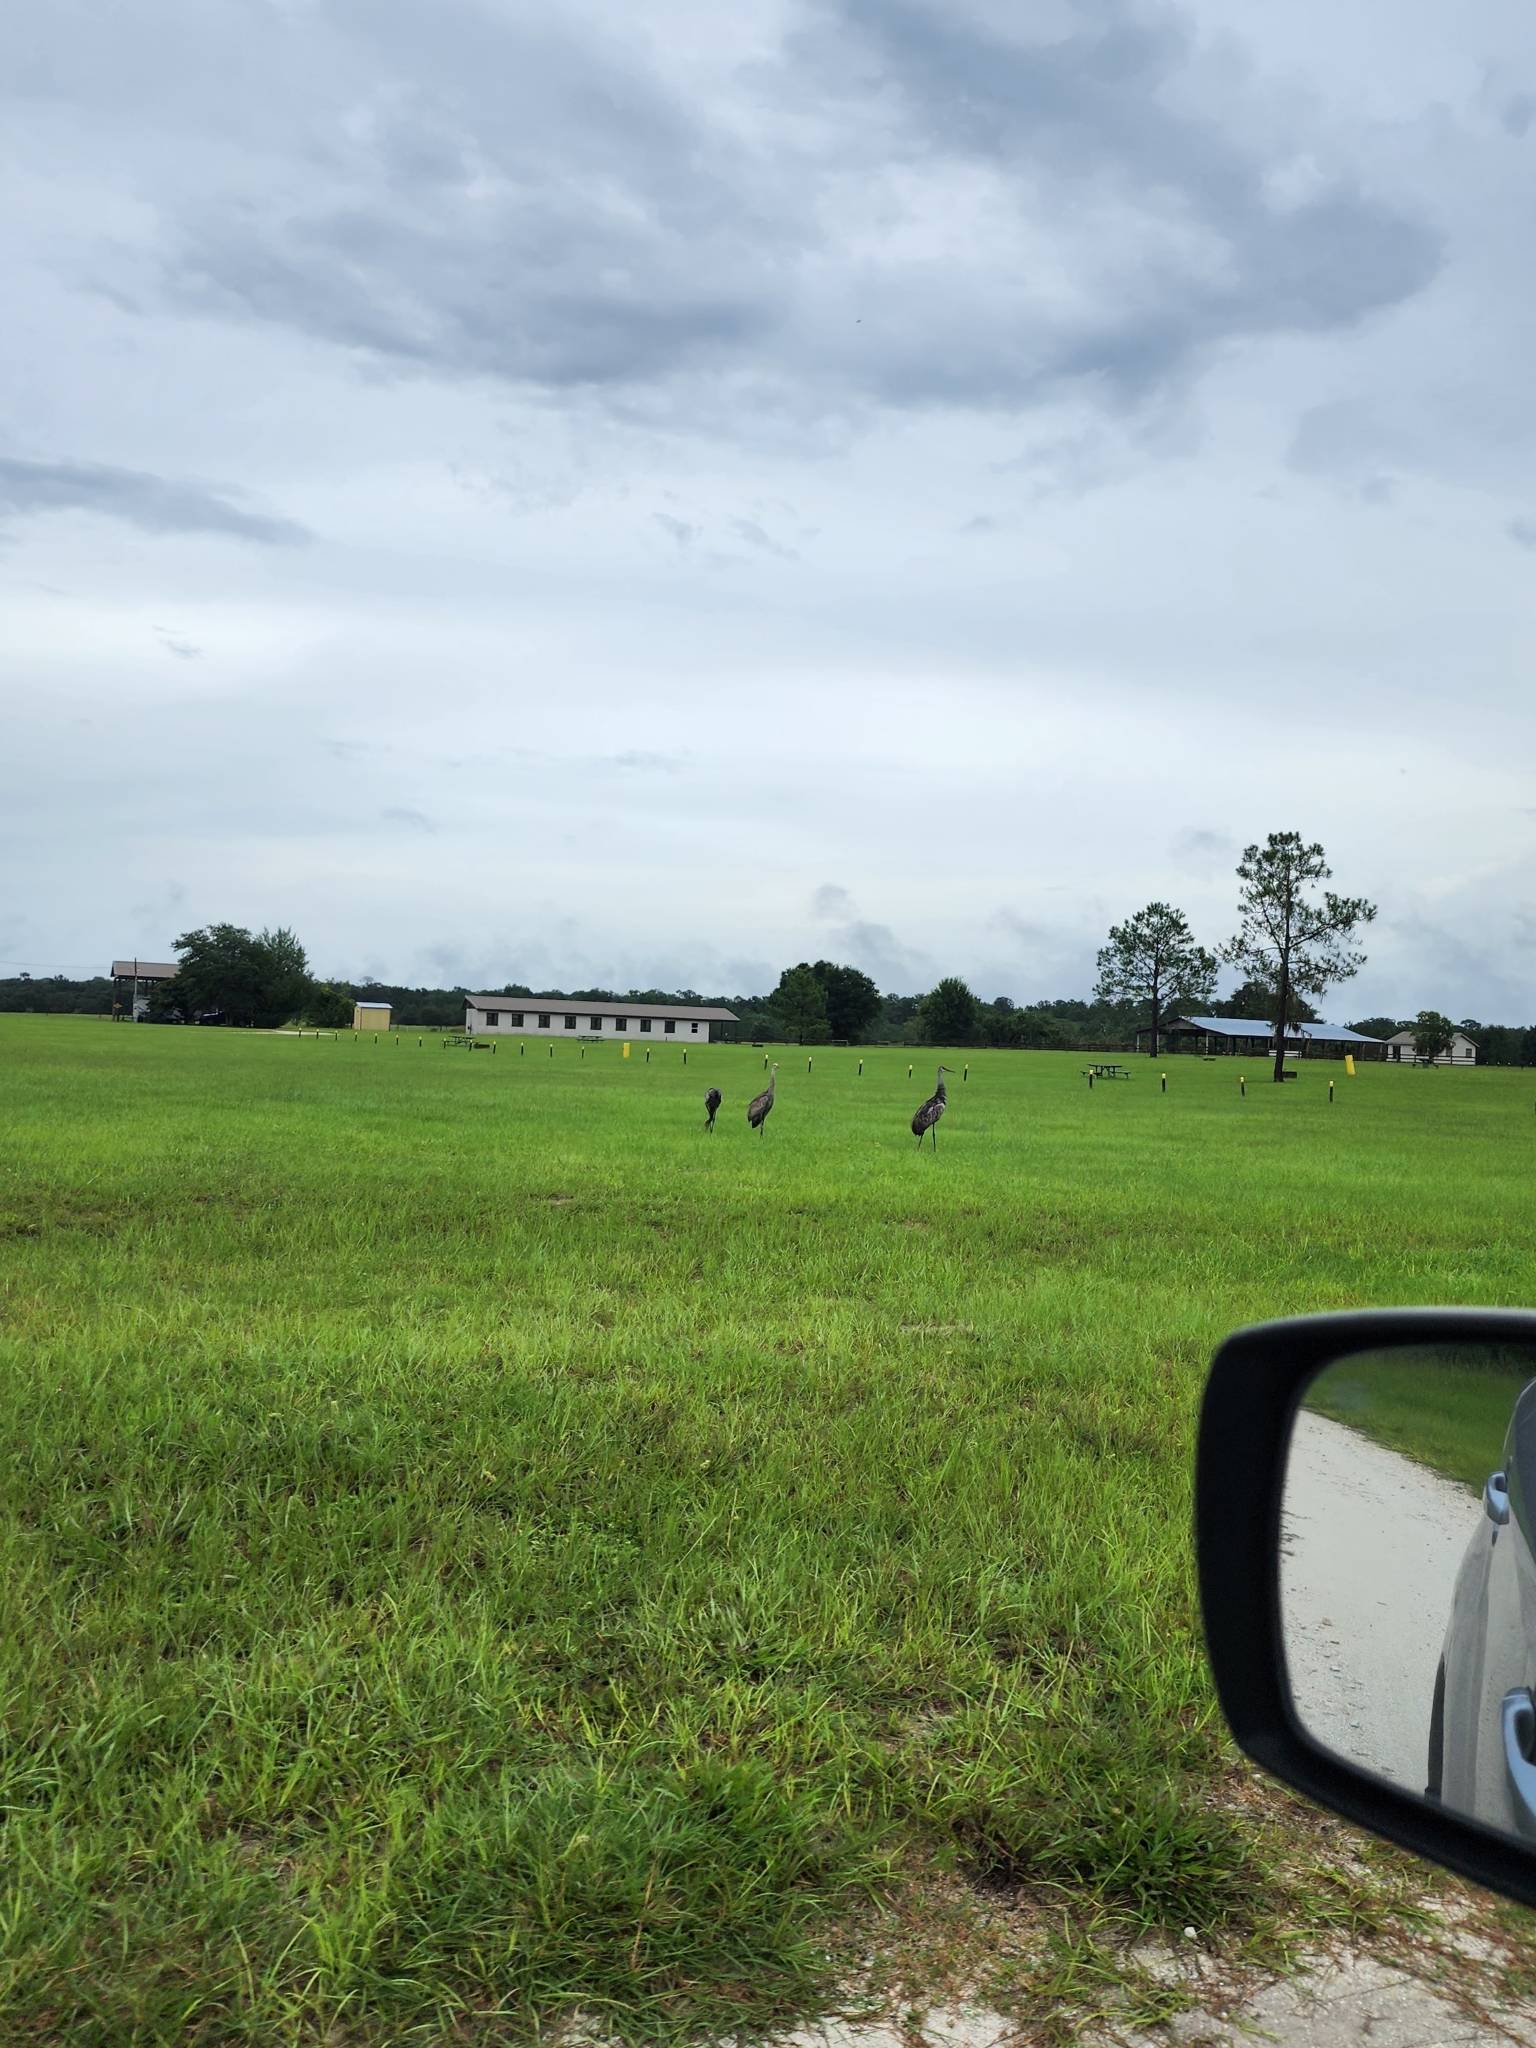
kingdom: Animalia
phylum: Chordata
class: Aves
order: Gruiformes
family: Gruidae
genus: Grus
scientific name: Grus canadensis
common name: Sandhill crane
